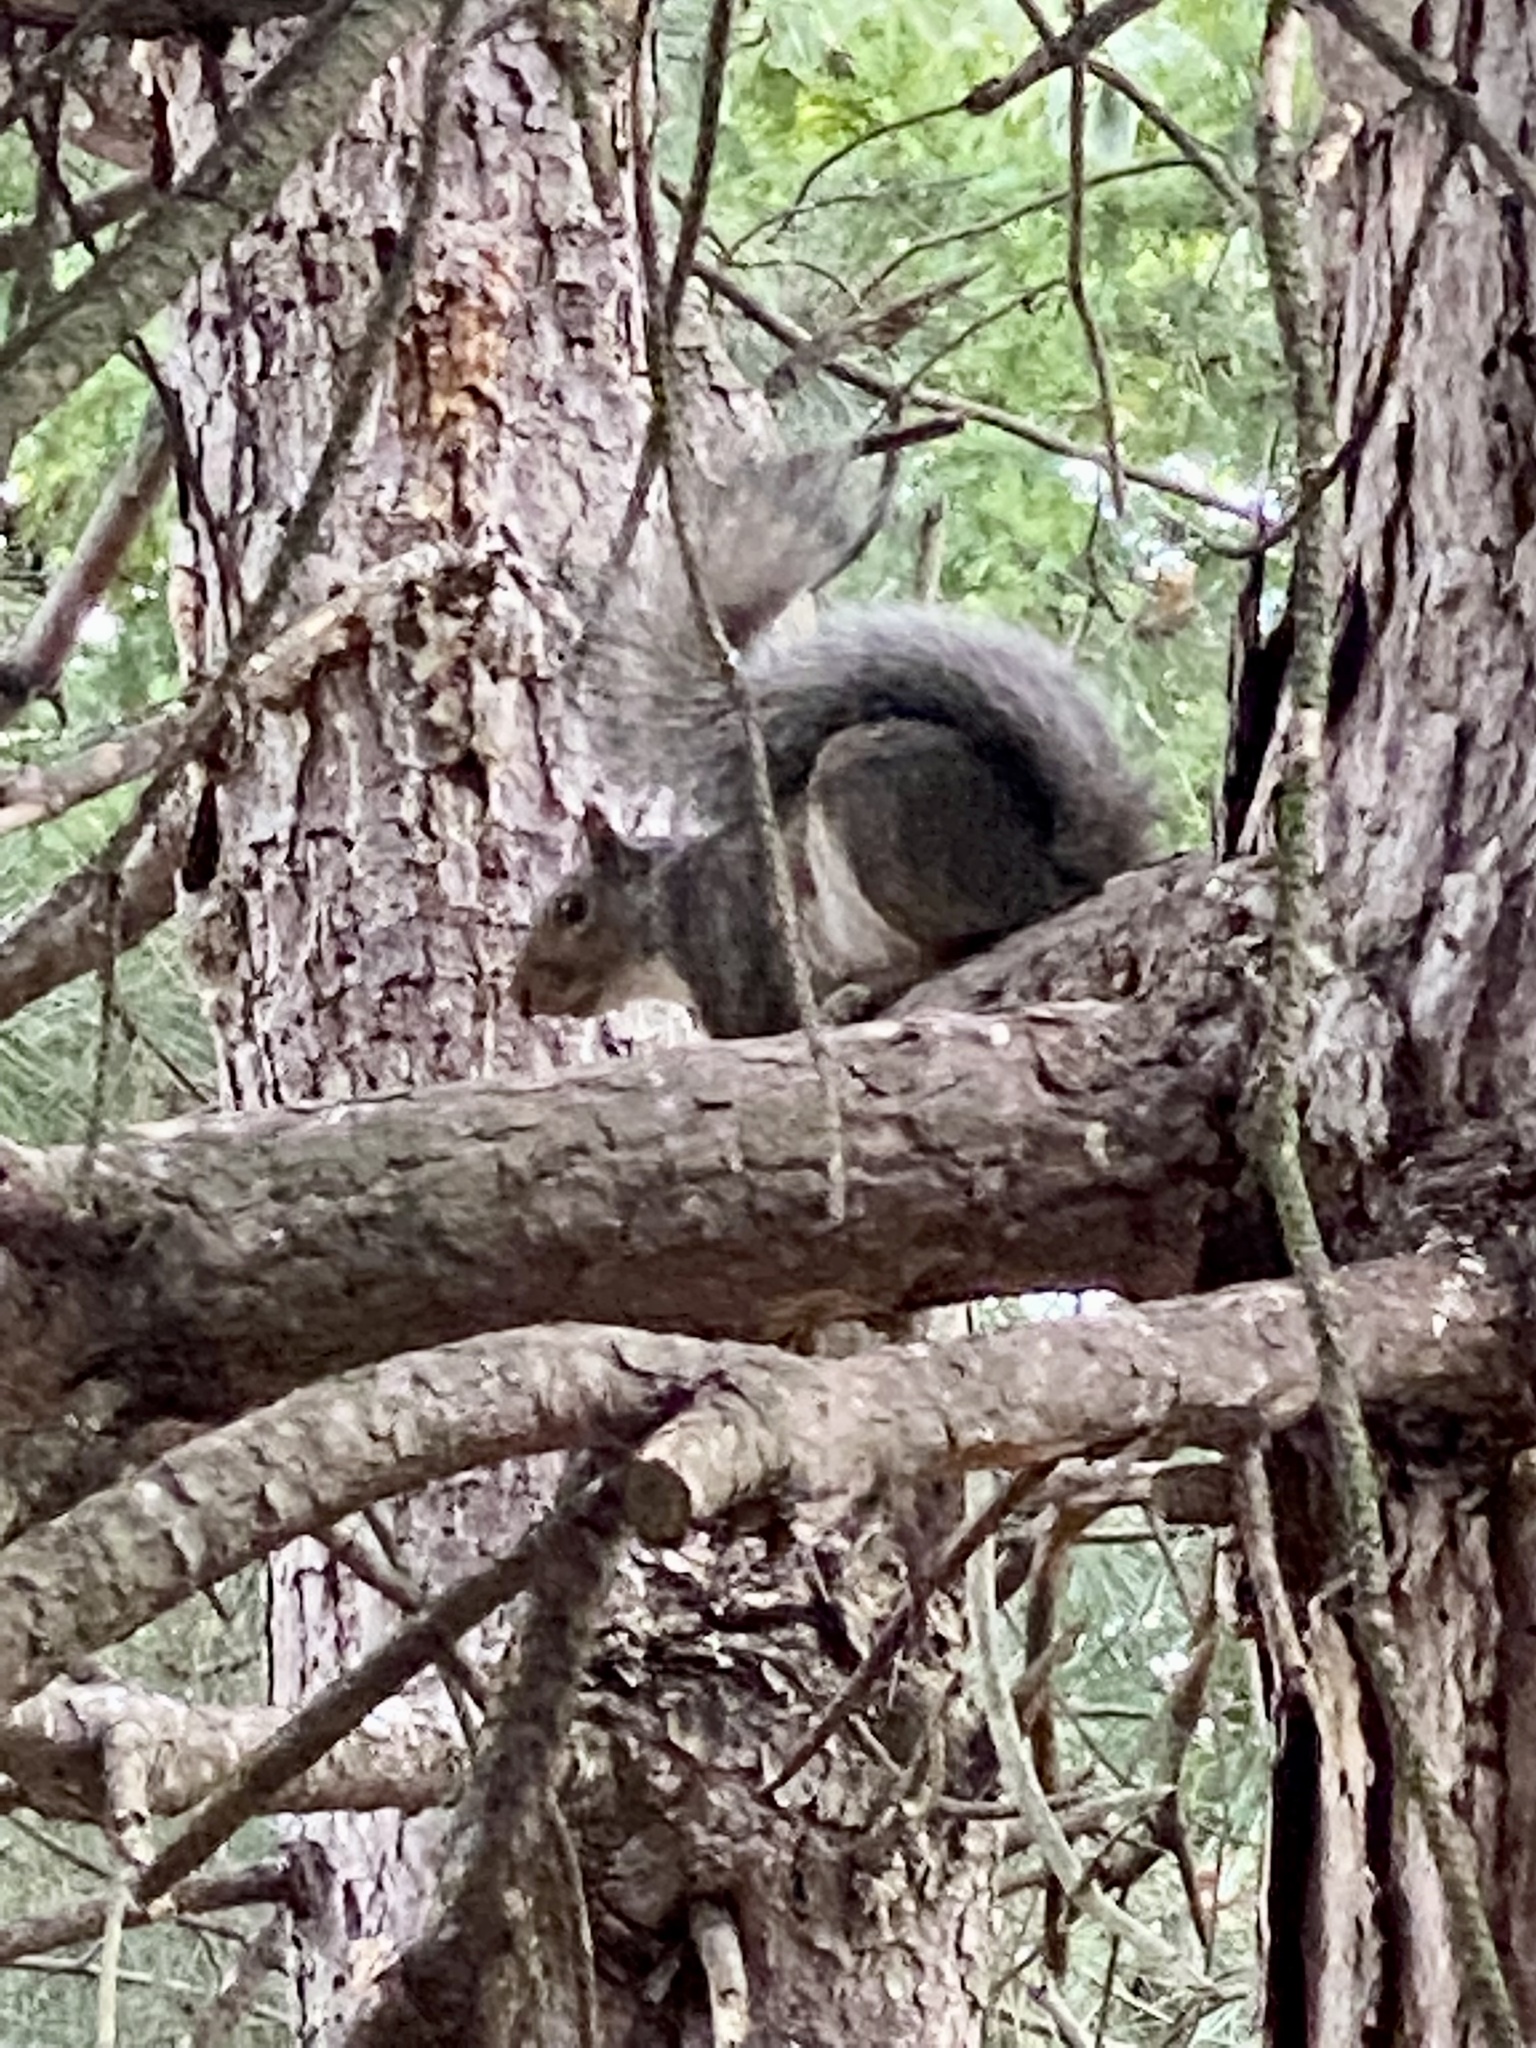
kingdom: Animalia
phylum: Chordata
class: Mammalia
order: Rodentia
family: Sciuridae
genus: Sciurus
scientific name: Sciurus carolinensis
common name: Eastern gray squirrel
